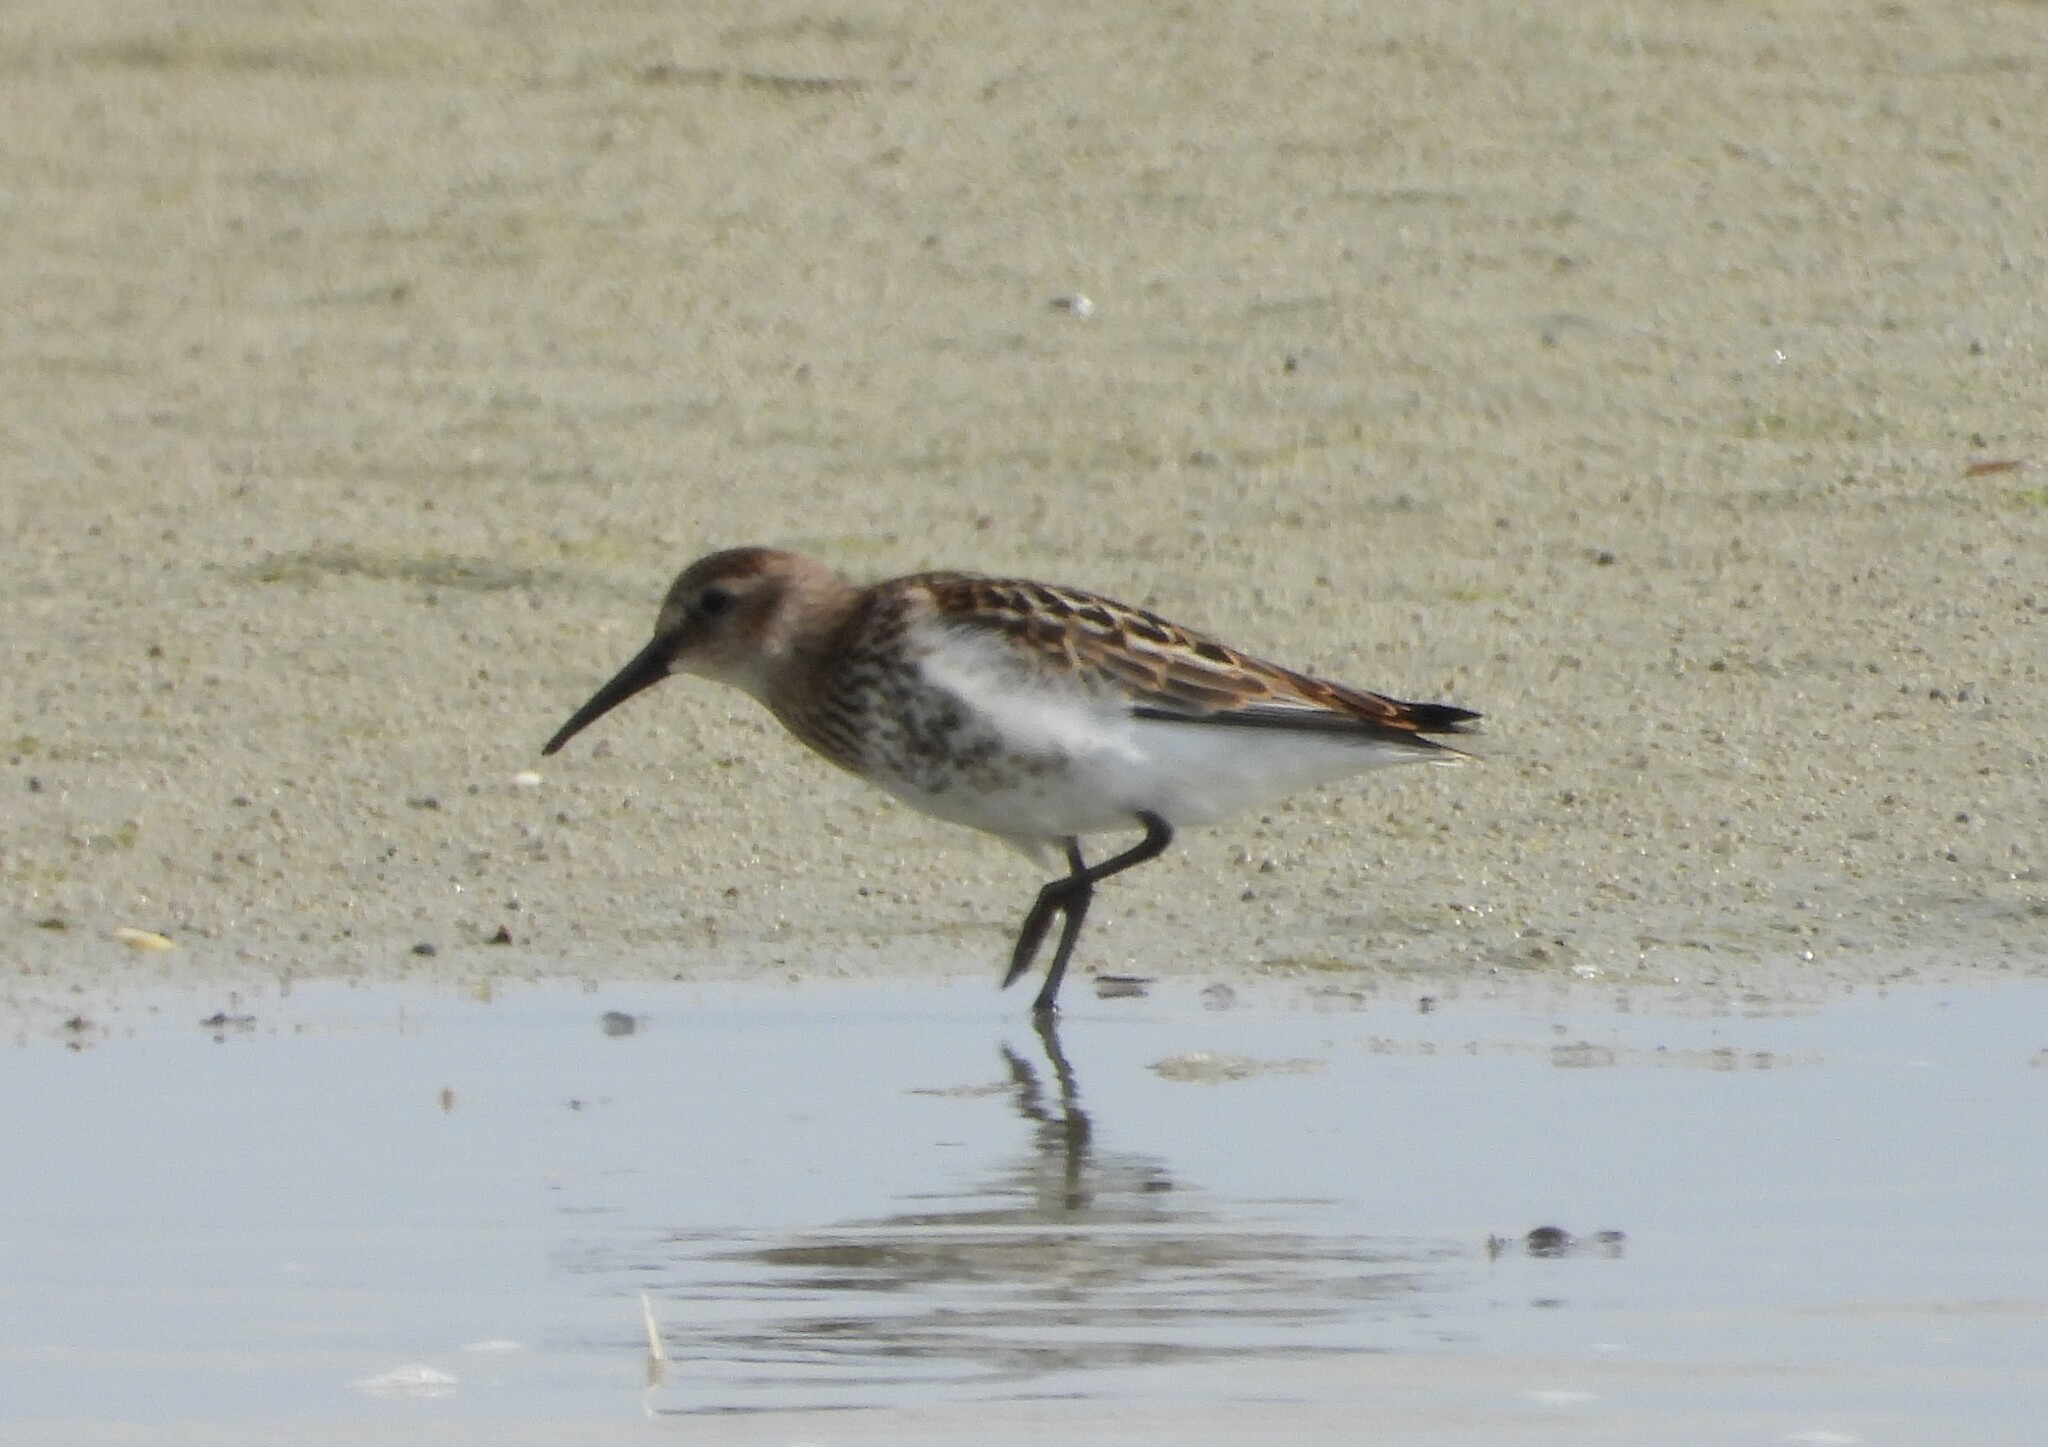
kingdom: Animalia
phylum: Chordata
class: Aves
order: Charadriiformes
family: Scolopacidae
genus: Calidris
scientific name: Calidris alpina
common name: Dunlin
